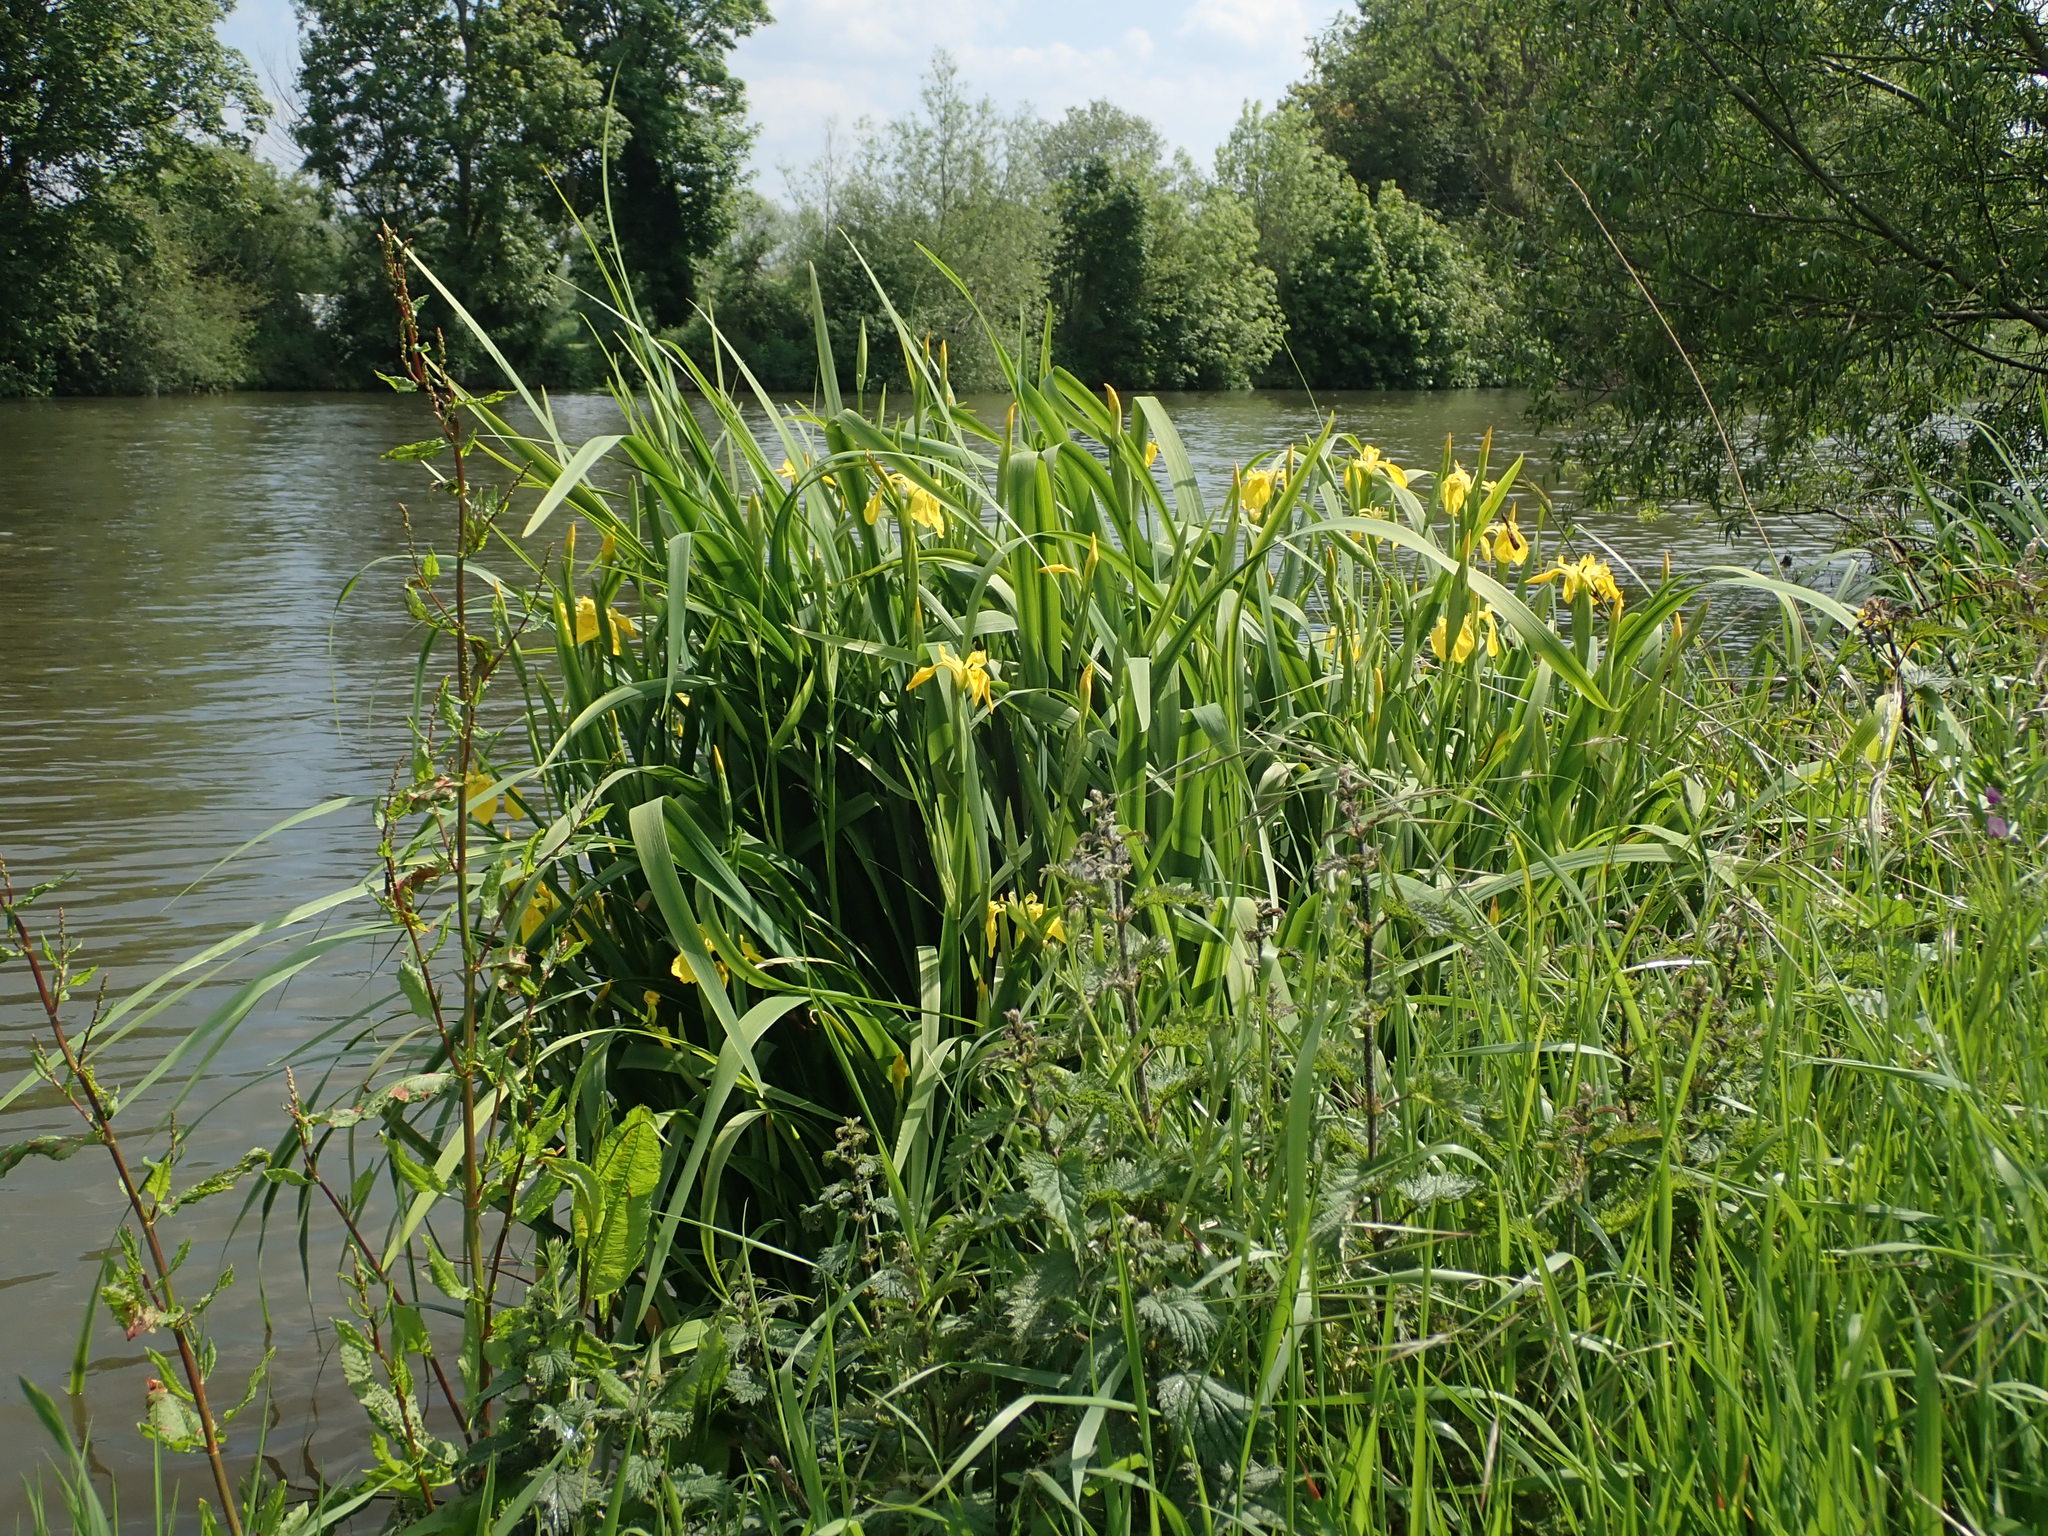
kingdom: Plantae
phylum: Tracheophyta
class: Liliopsida
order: Asparagales
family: Iridaceae
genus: Iris
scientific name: Iris pseudacorus
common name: Yellow flag
